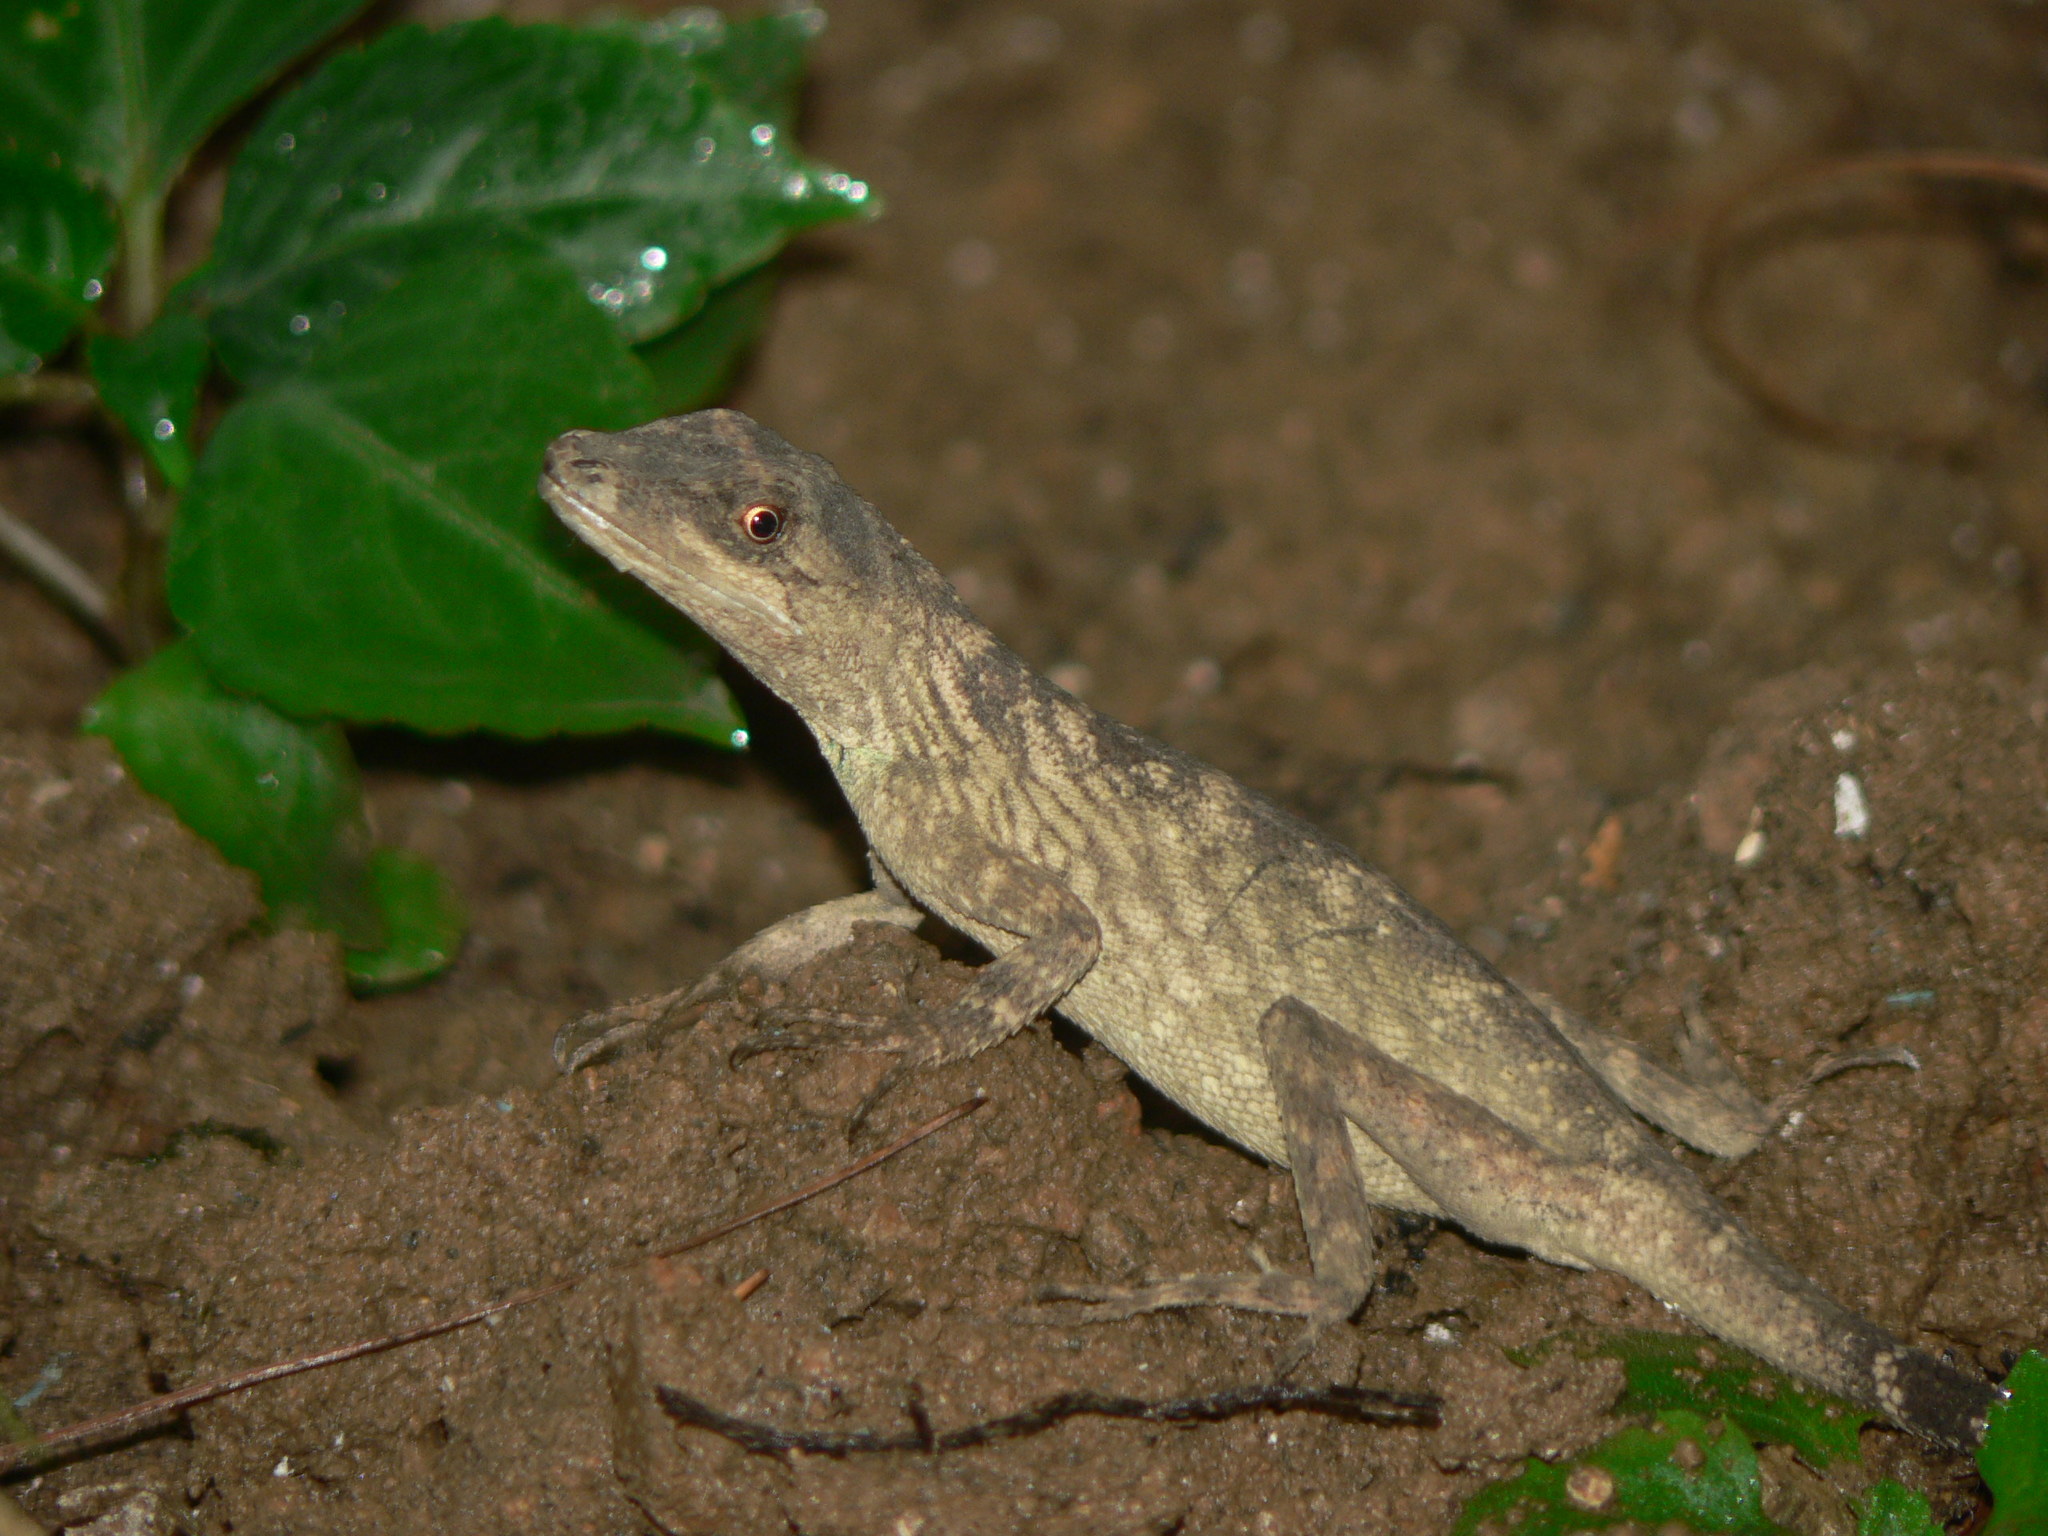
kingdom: Animalia
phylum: Chordata
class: Squamata
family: Agamidae
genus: Ptyctolaemus
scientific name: Ptyctolaemus gularis
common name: Green fan-throated lizard
